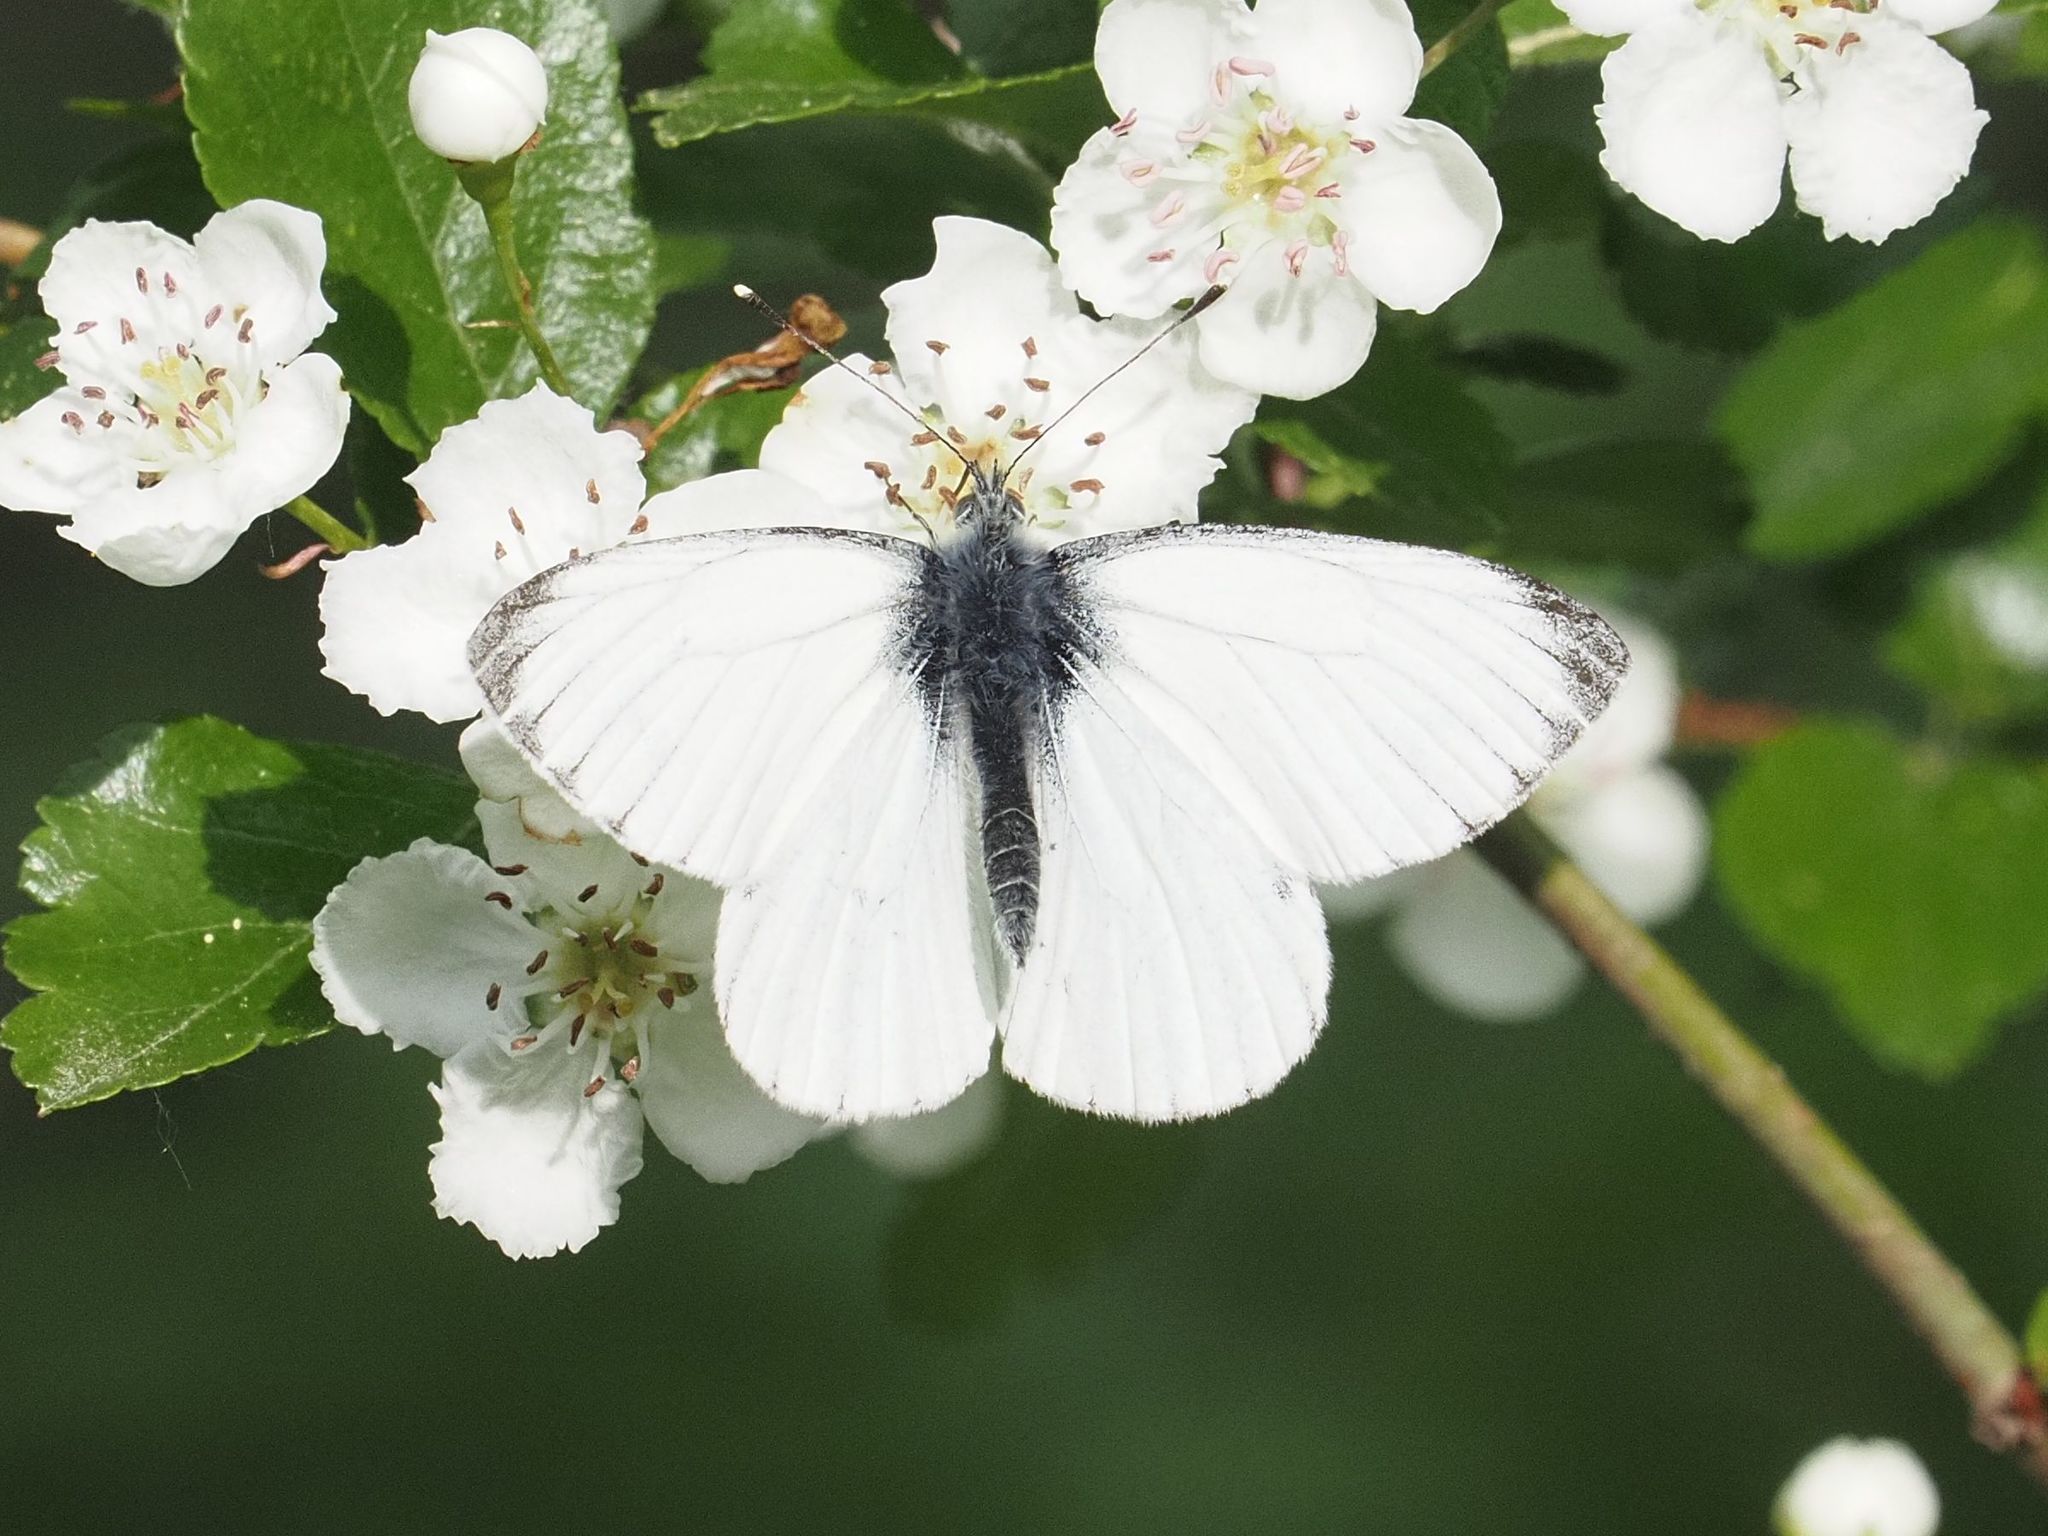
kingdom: Animalia
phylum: Arthropoda
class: Insecta
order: Lepidoptera
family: Pieridae
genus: Pieris
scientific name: Pieris napi
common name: Green-veined white
